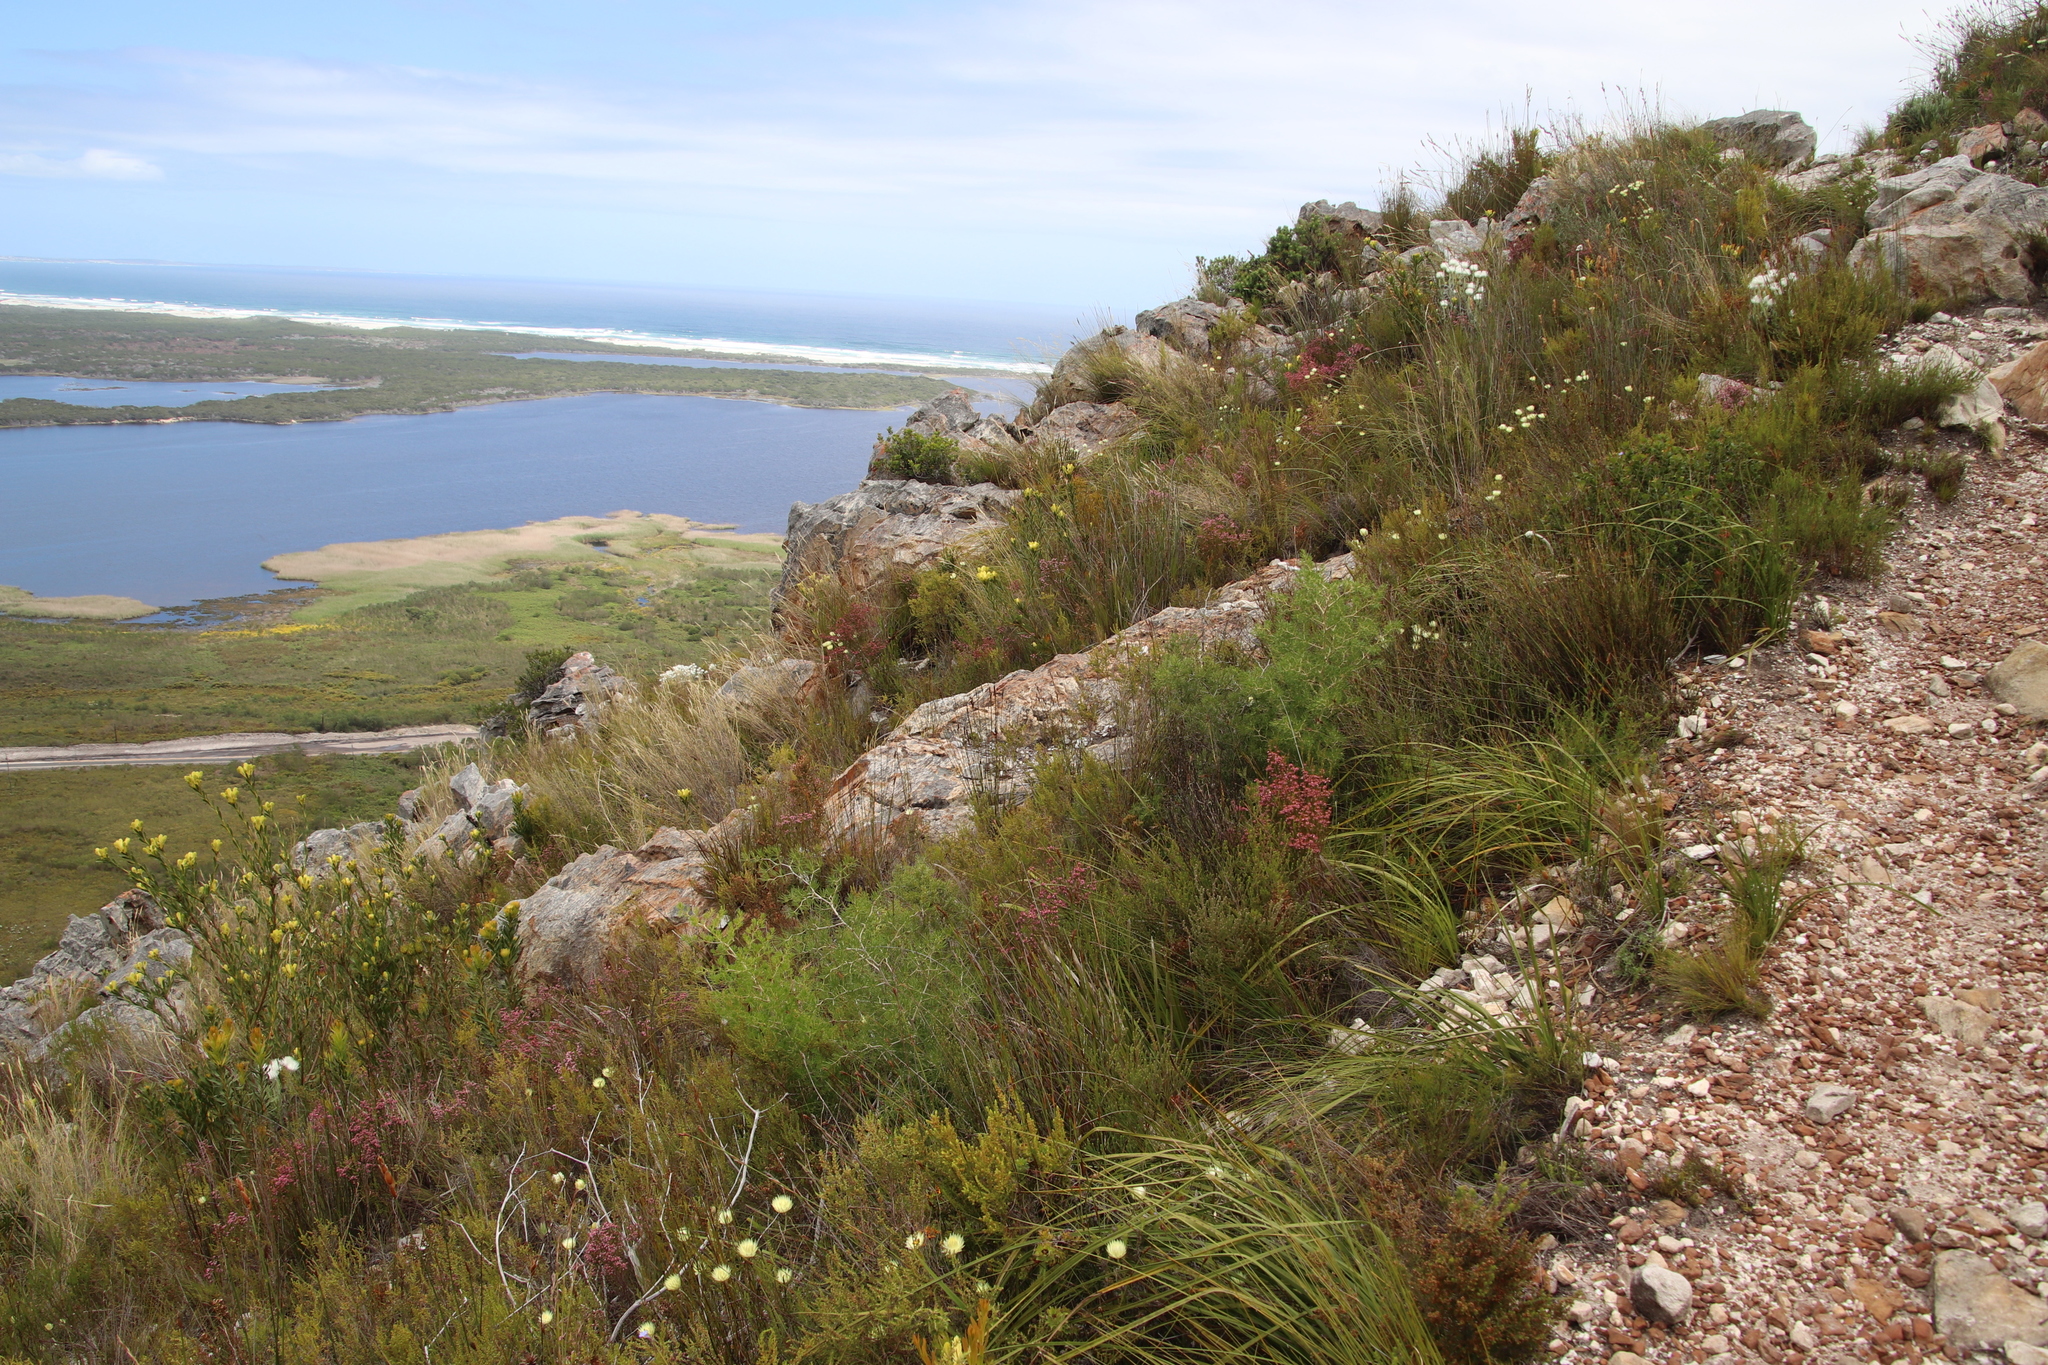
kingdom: Plantae
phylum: Tracheophyta
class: Liliopsida
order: Asparagales
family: Asparagaceae
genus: Asparagus
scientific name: Asparagus lignosus
